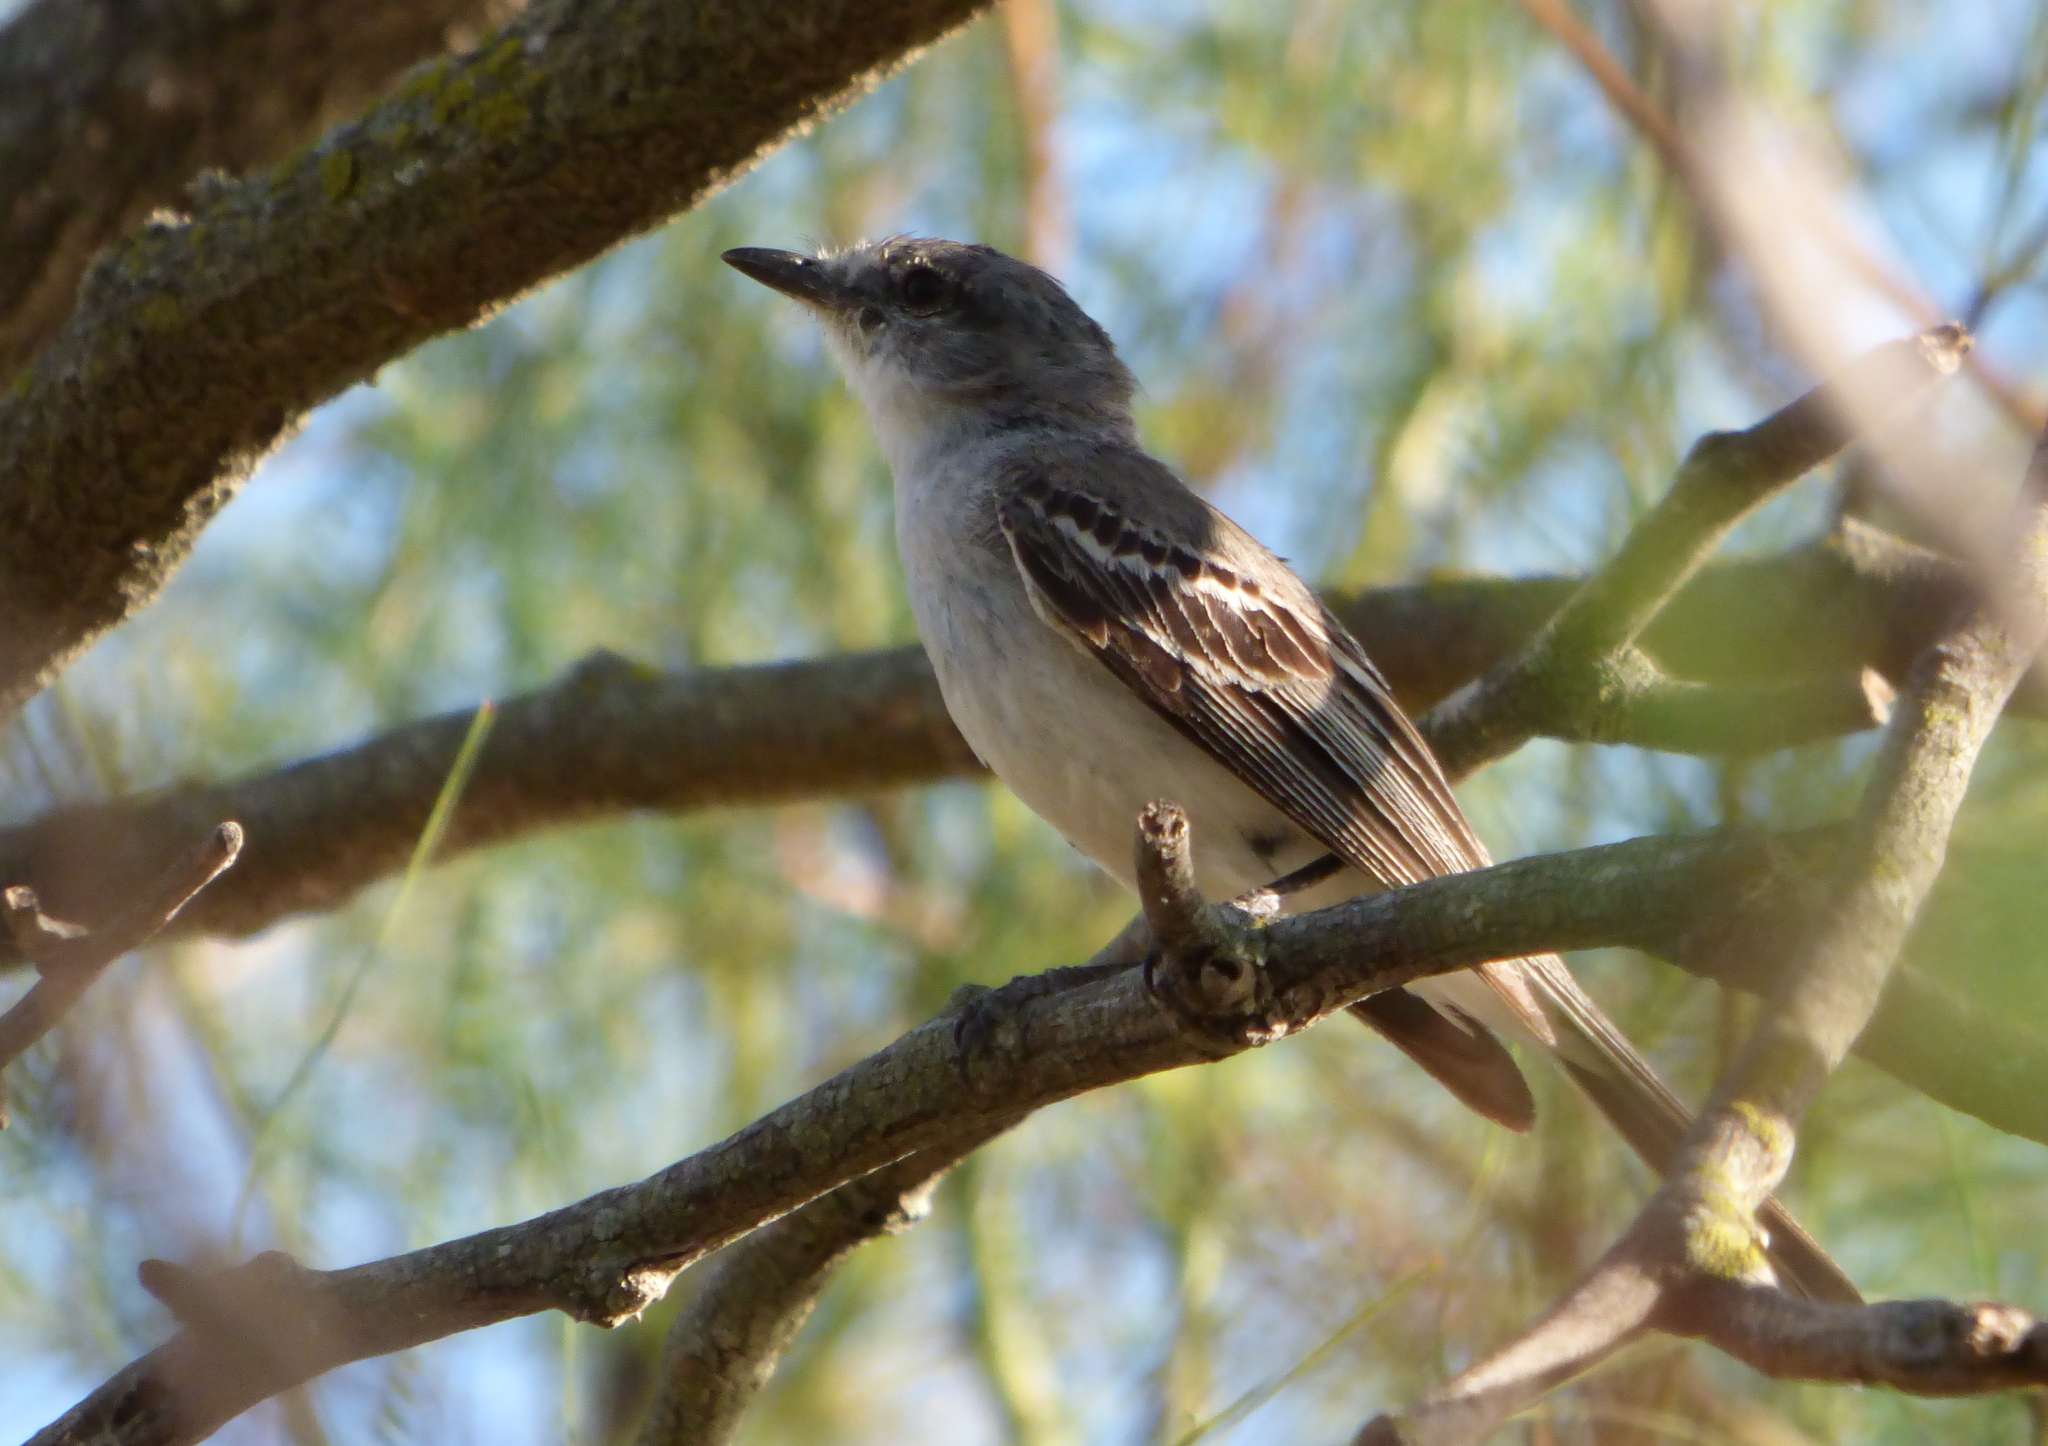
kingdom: Animalia
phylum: Chordata
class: Aves
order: Passeriformes
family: Tyrannidae
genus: Suiriri
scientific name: Suiriri suiriri
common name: Suiriri flycatcher
